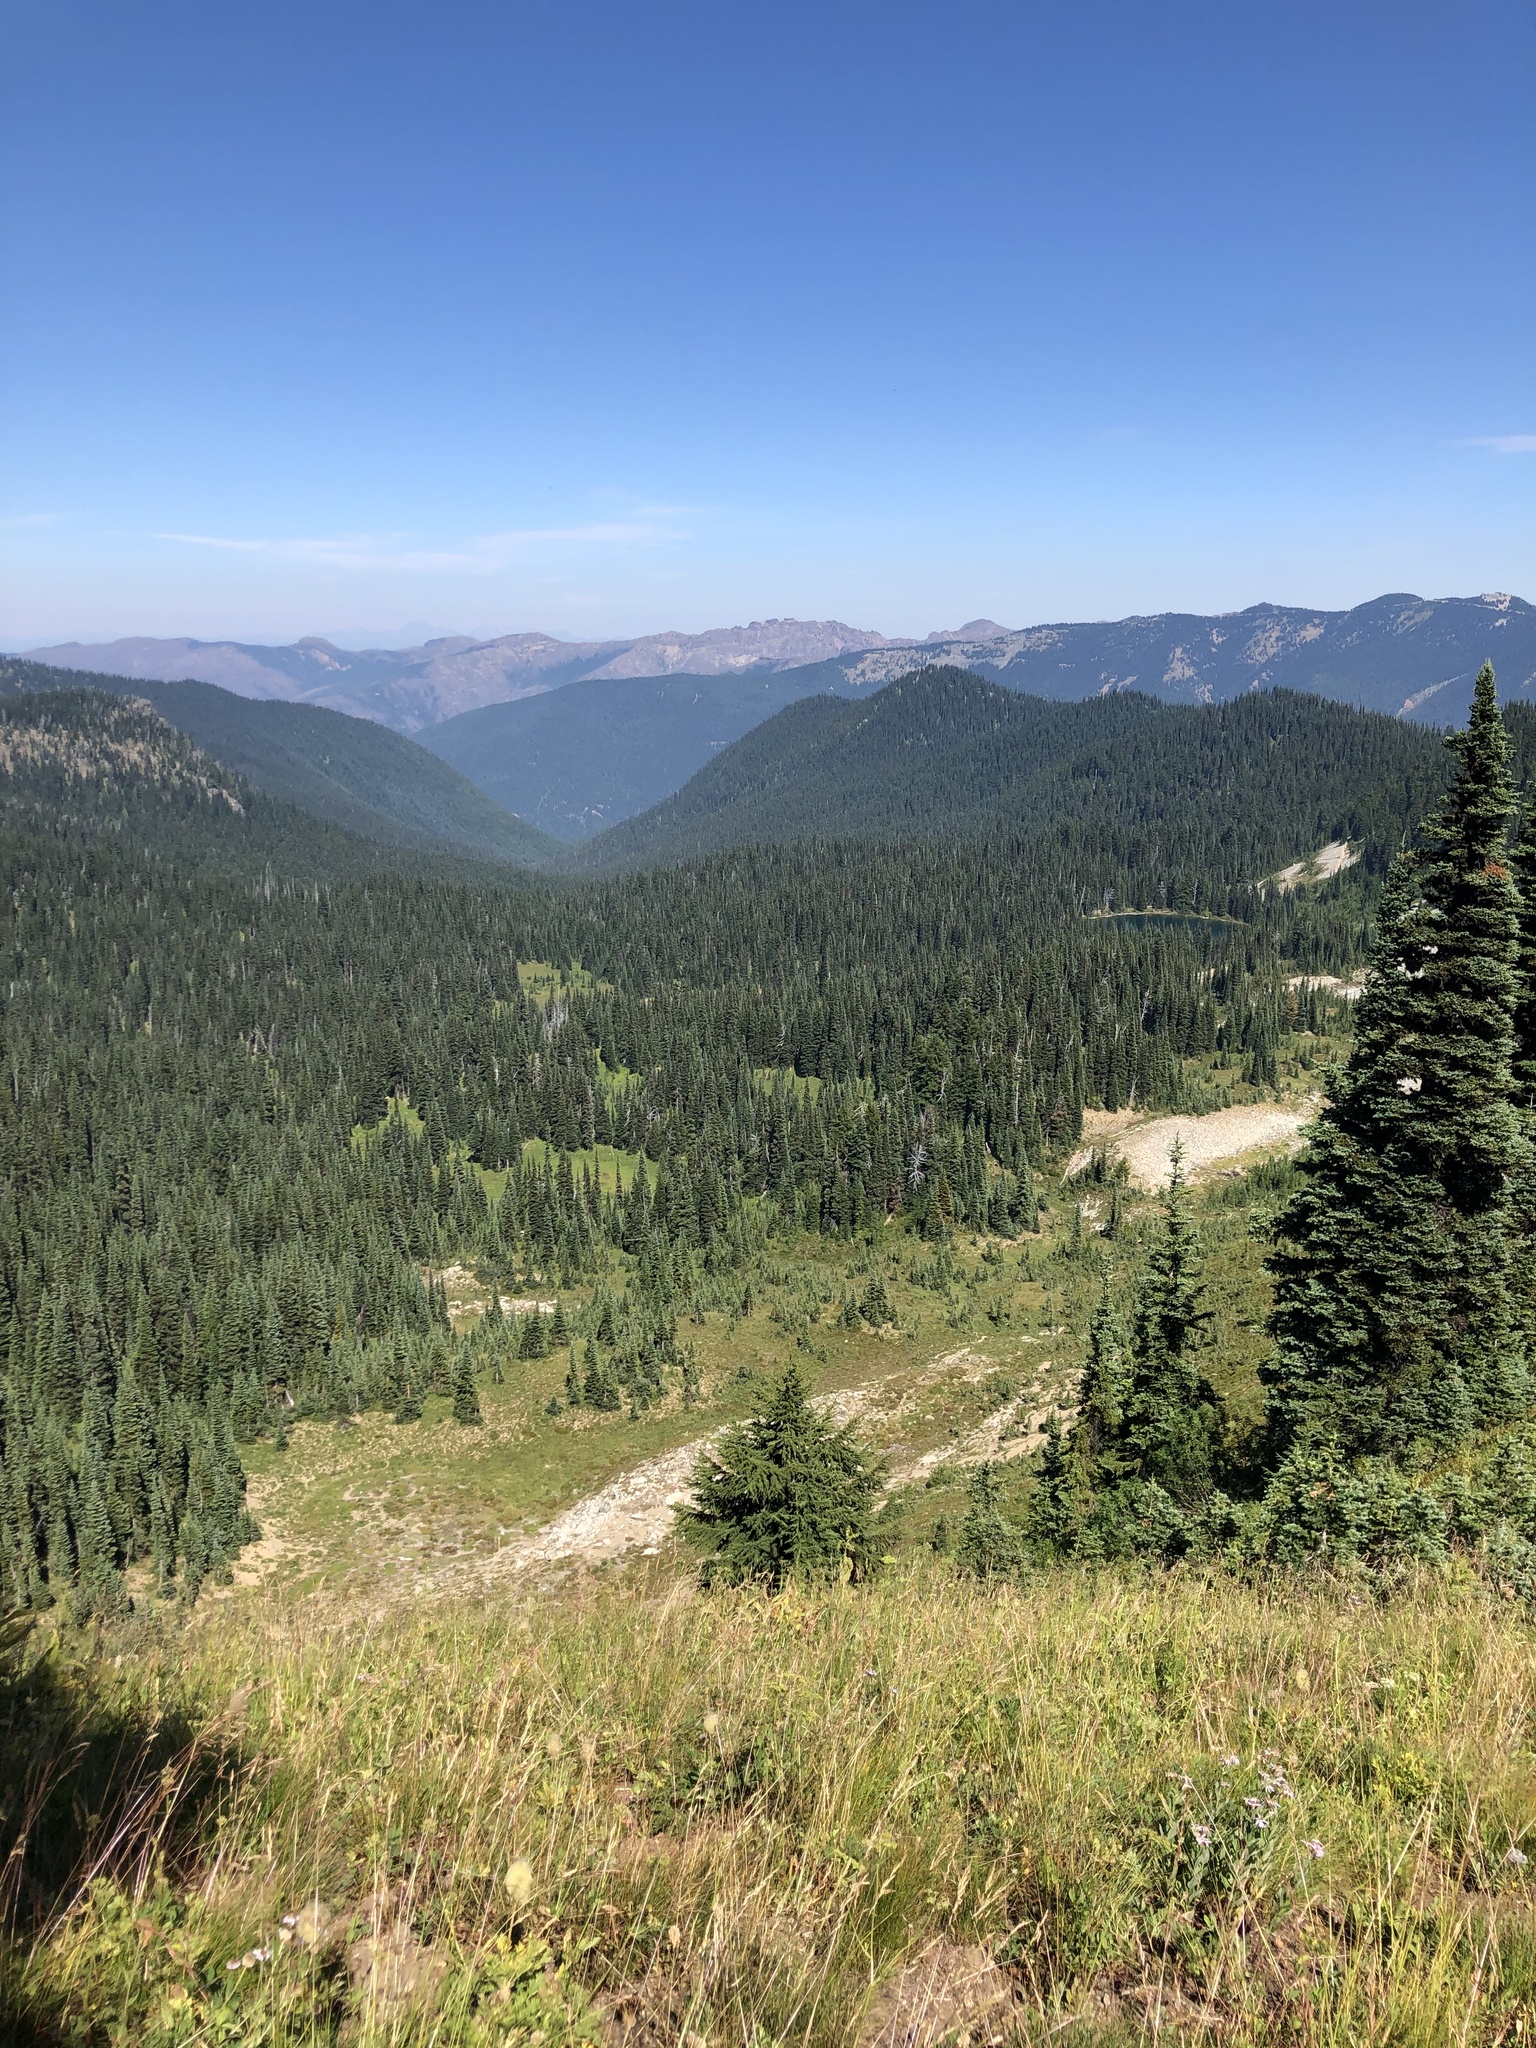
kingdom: Plantae
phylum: Tracheophyta
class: Pinopsida
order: Pinales
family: Pinaceae
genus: Tsuga
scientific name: Tsuga mertensiana
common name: Mountain hemlock
